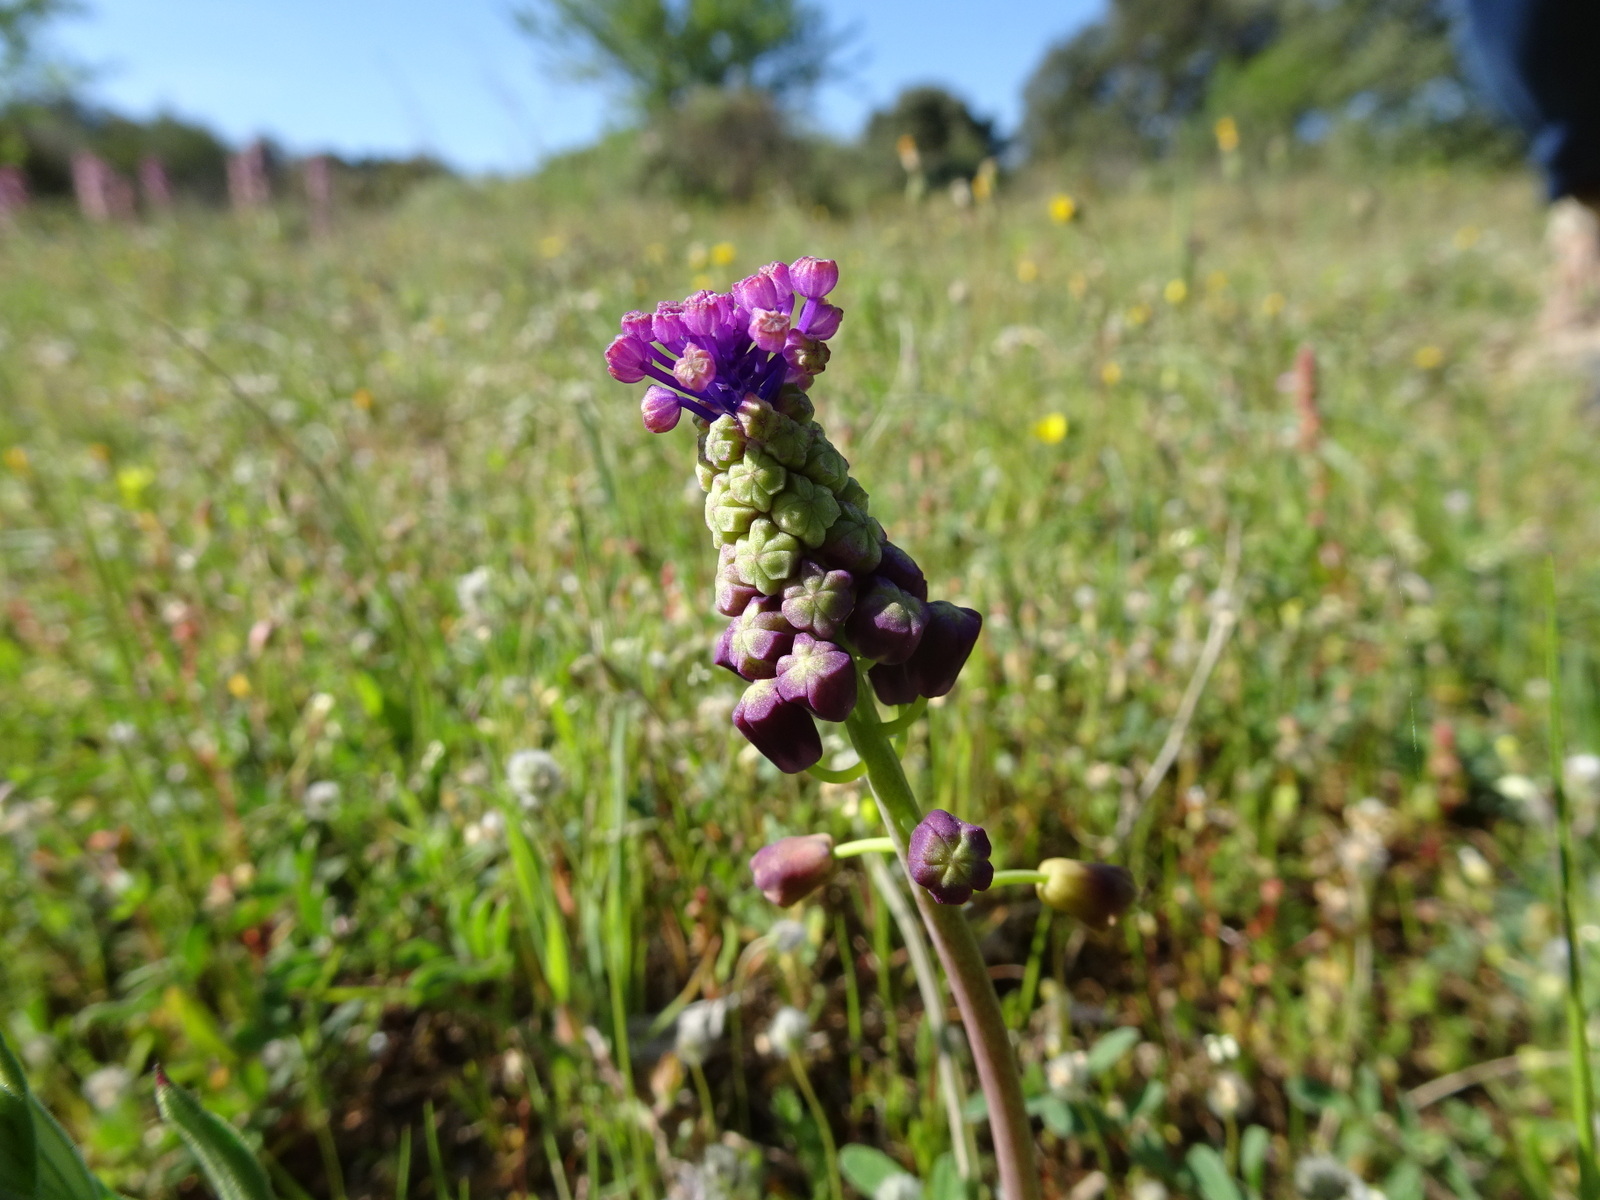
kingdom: Plantae
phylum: Tracheophyta
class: Liliopsida
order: Asparagales
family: Asparagaceae
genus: Muscari
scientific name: Muscari comosum
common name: Tassel hyacinth
